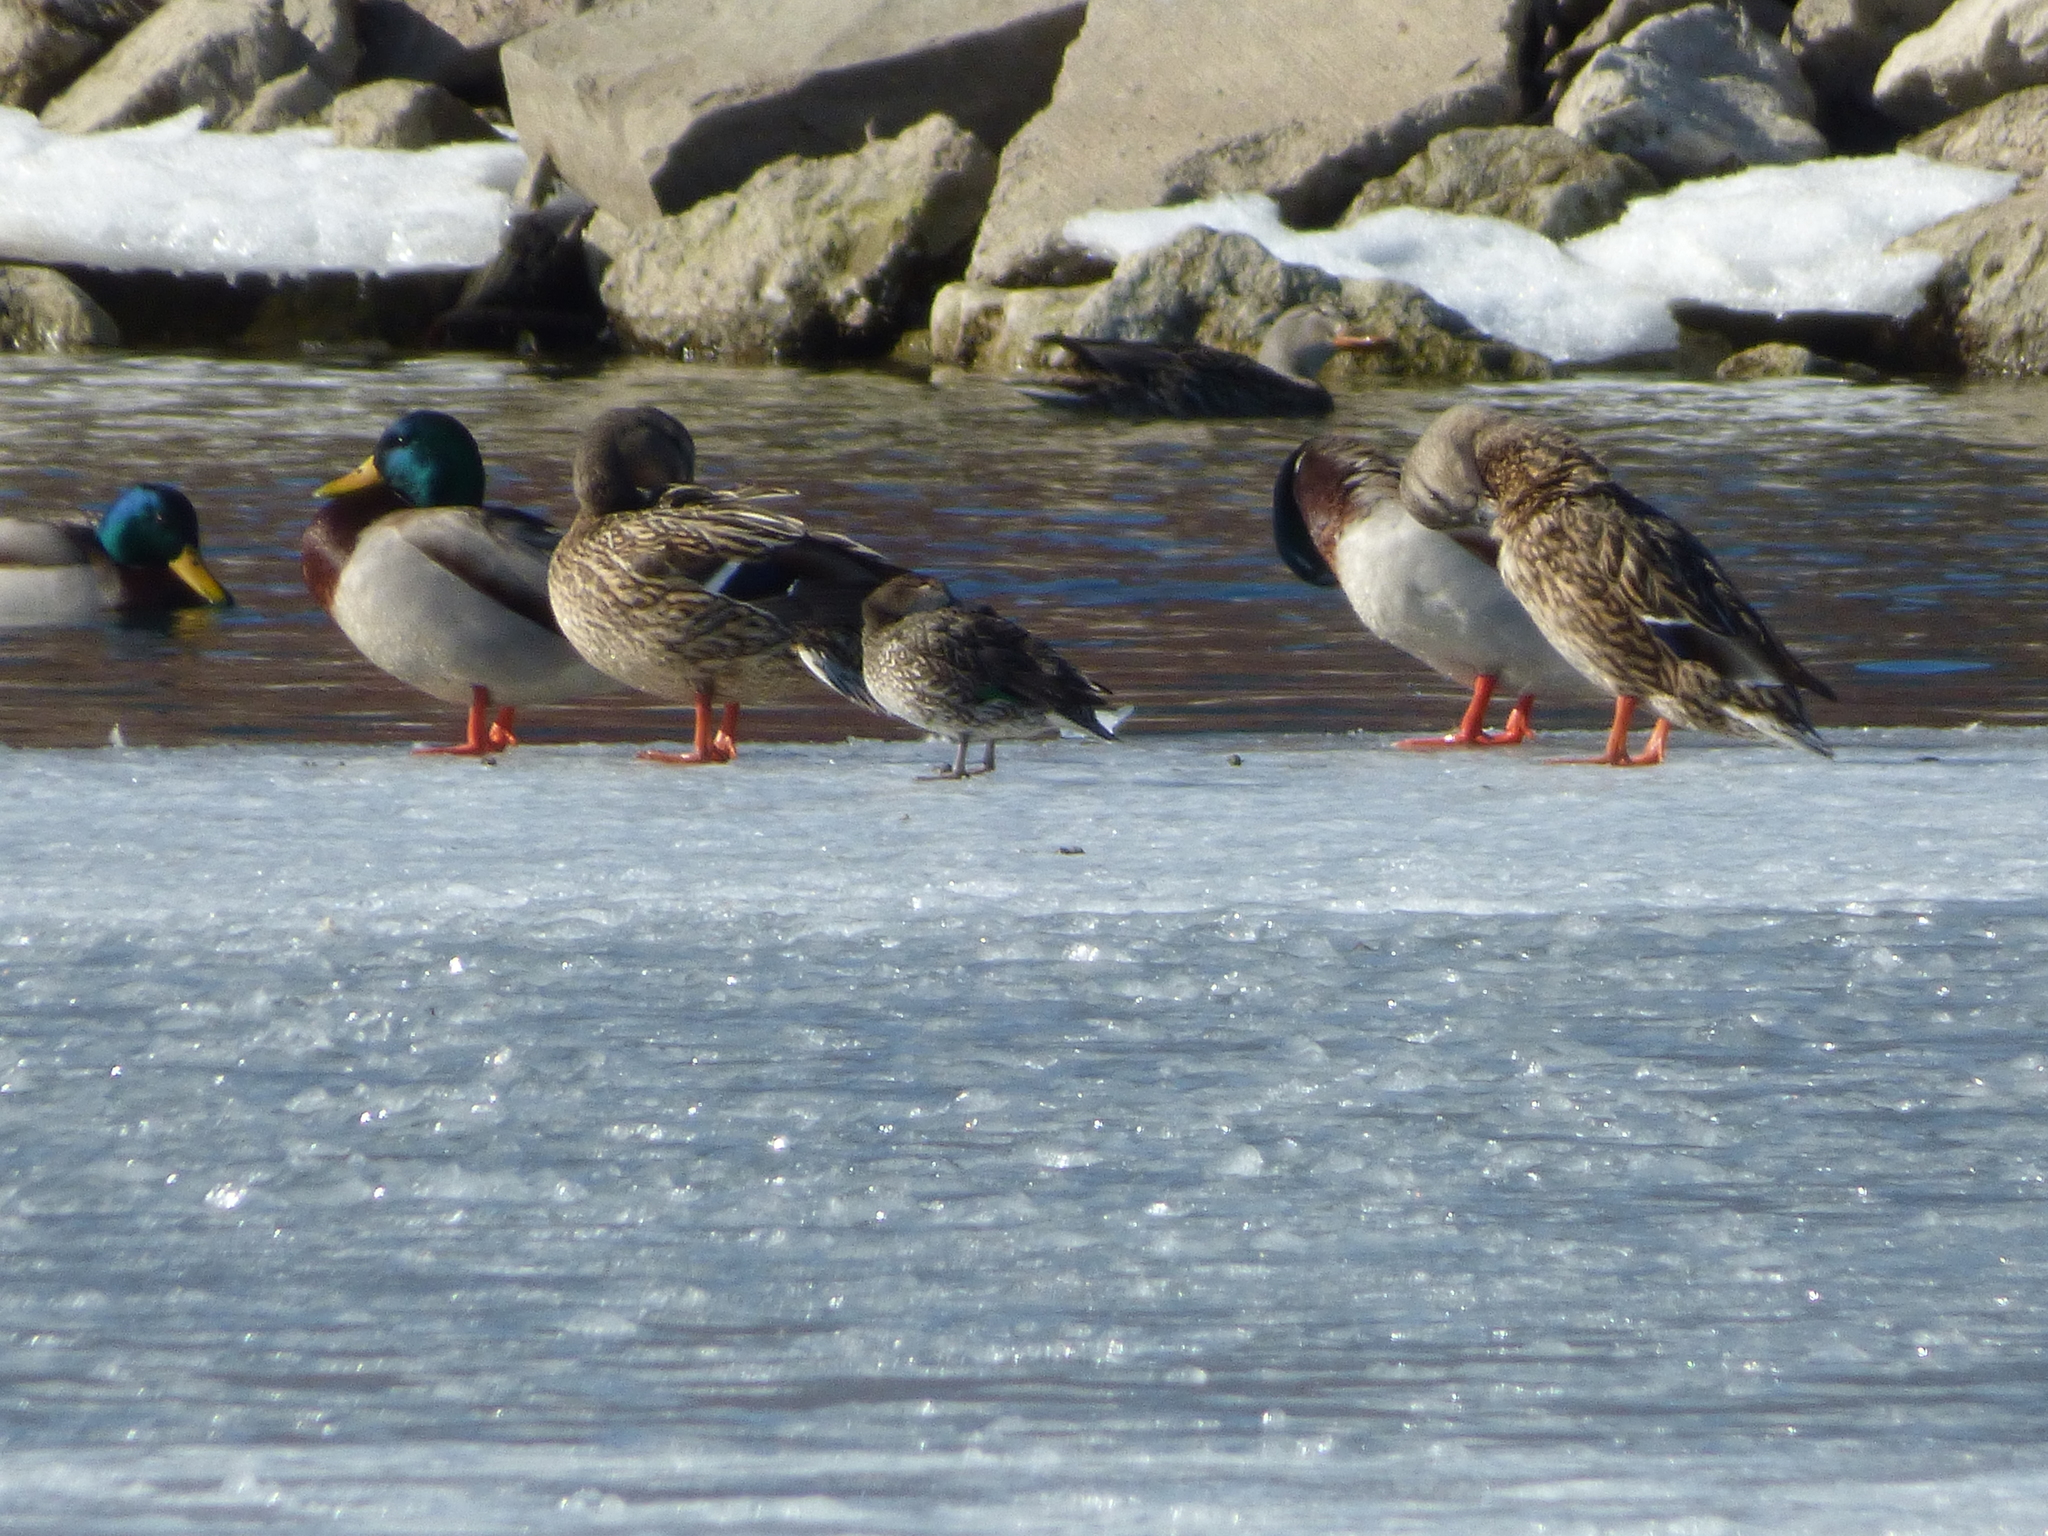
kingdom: Animalia
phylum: Chordata
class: Aves
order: Anseriformes
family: Anatidae
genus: Anas
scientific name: Anas platyrhynchos
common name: Mallard
